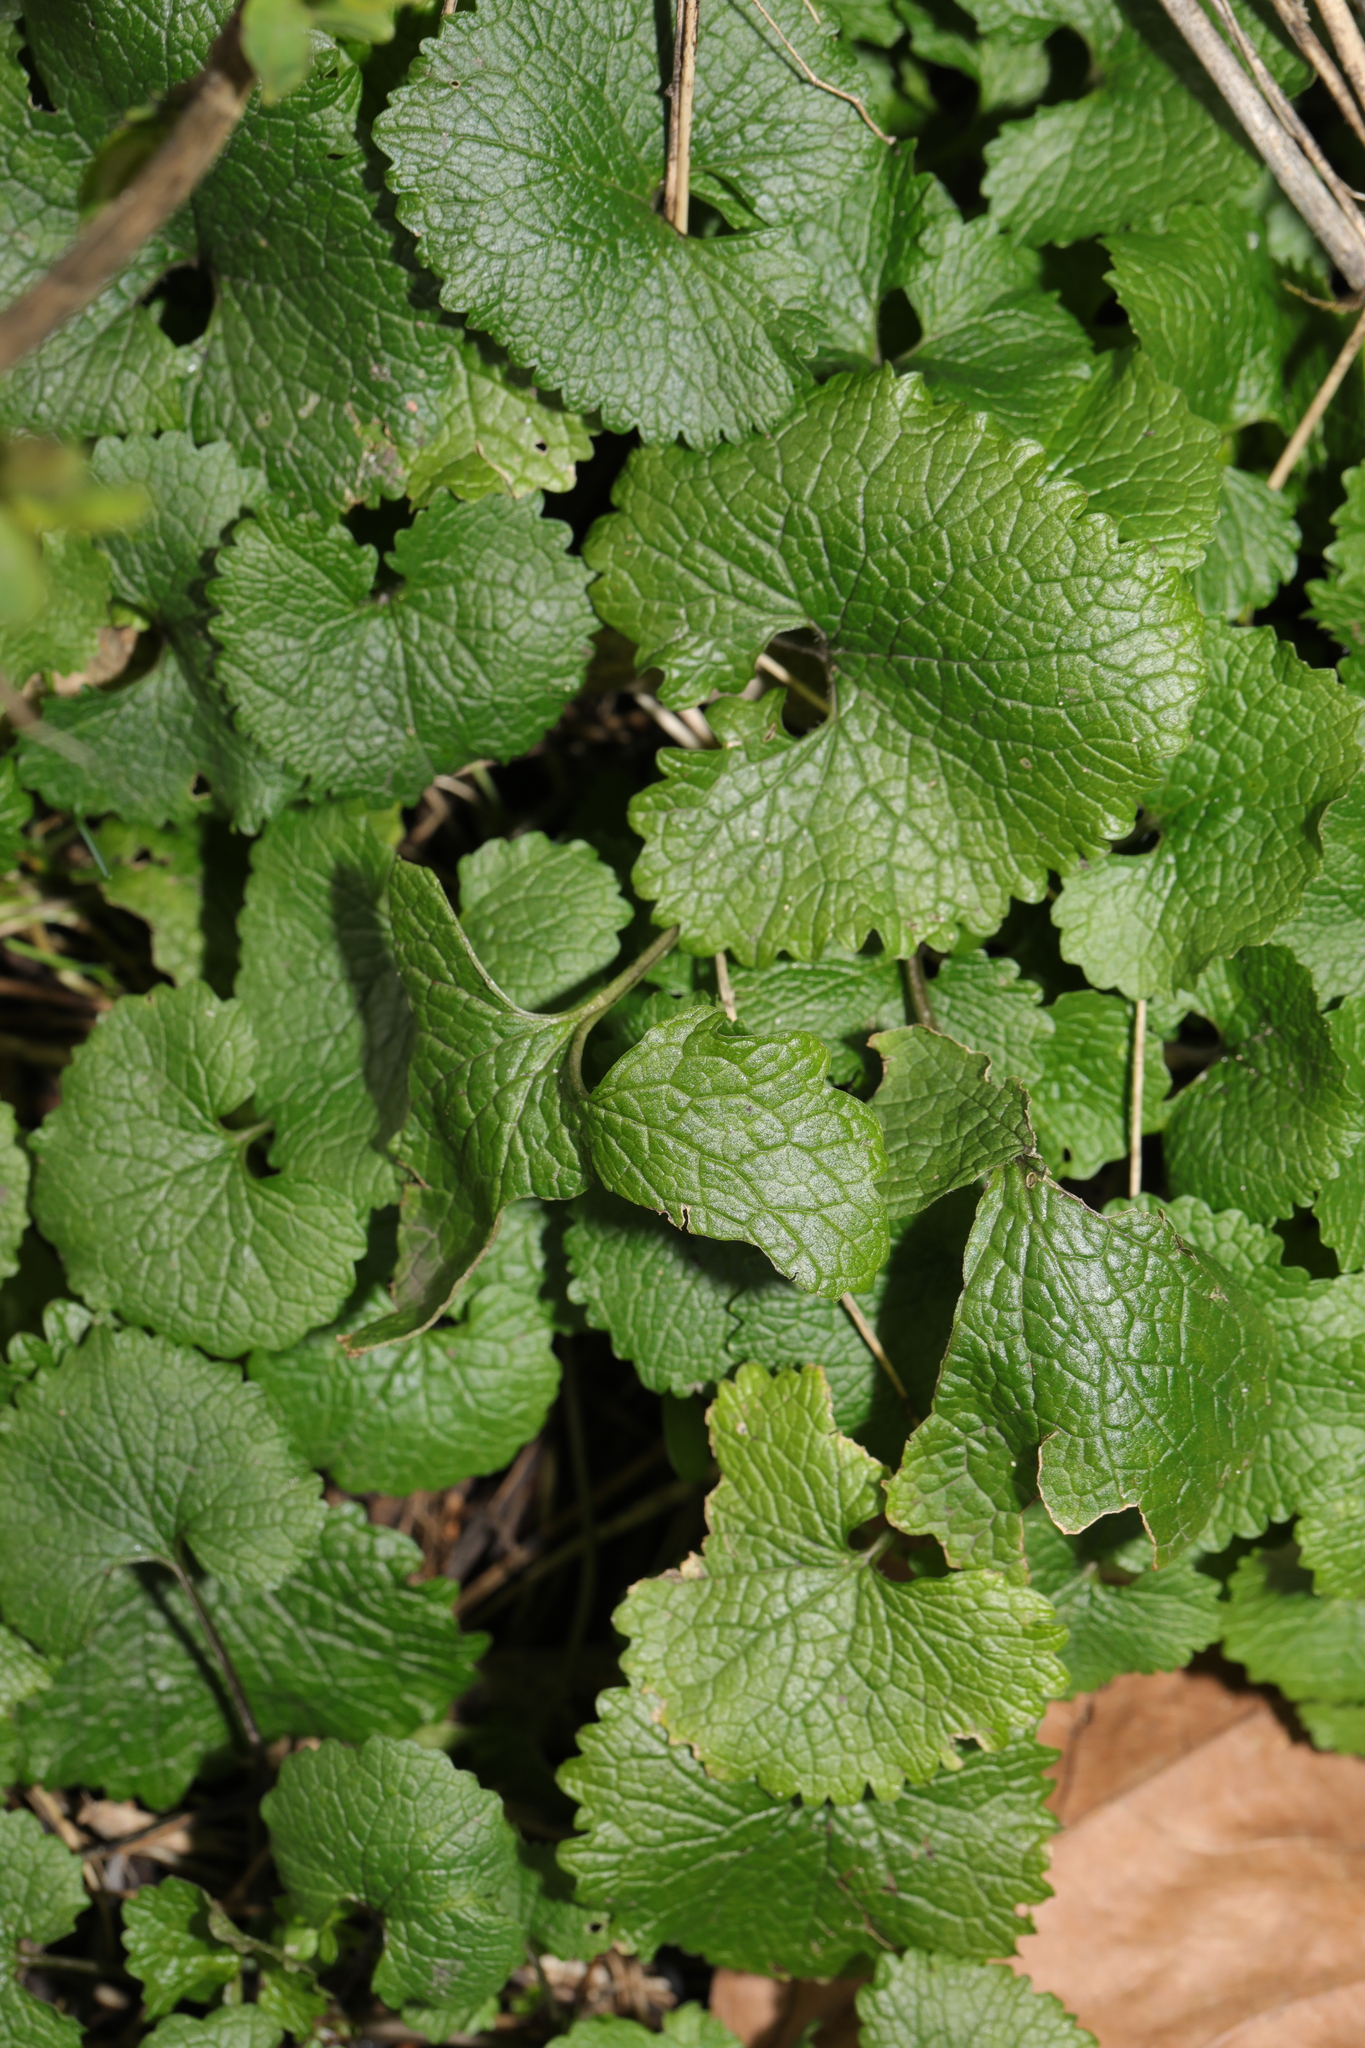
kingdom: Plantae
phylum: Tracheophyta
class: Magnoliopsida
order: Brassicales
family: Brassicaceae
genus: Alliaria
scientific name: Alliaria petiolata
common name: Garlic mustard
